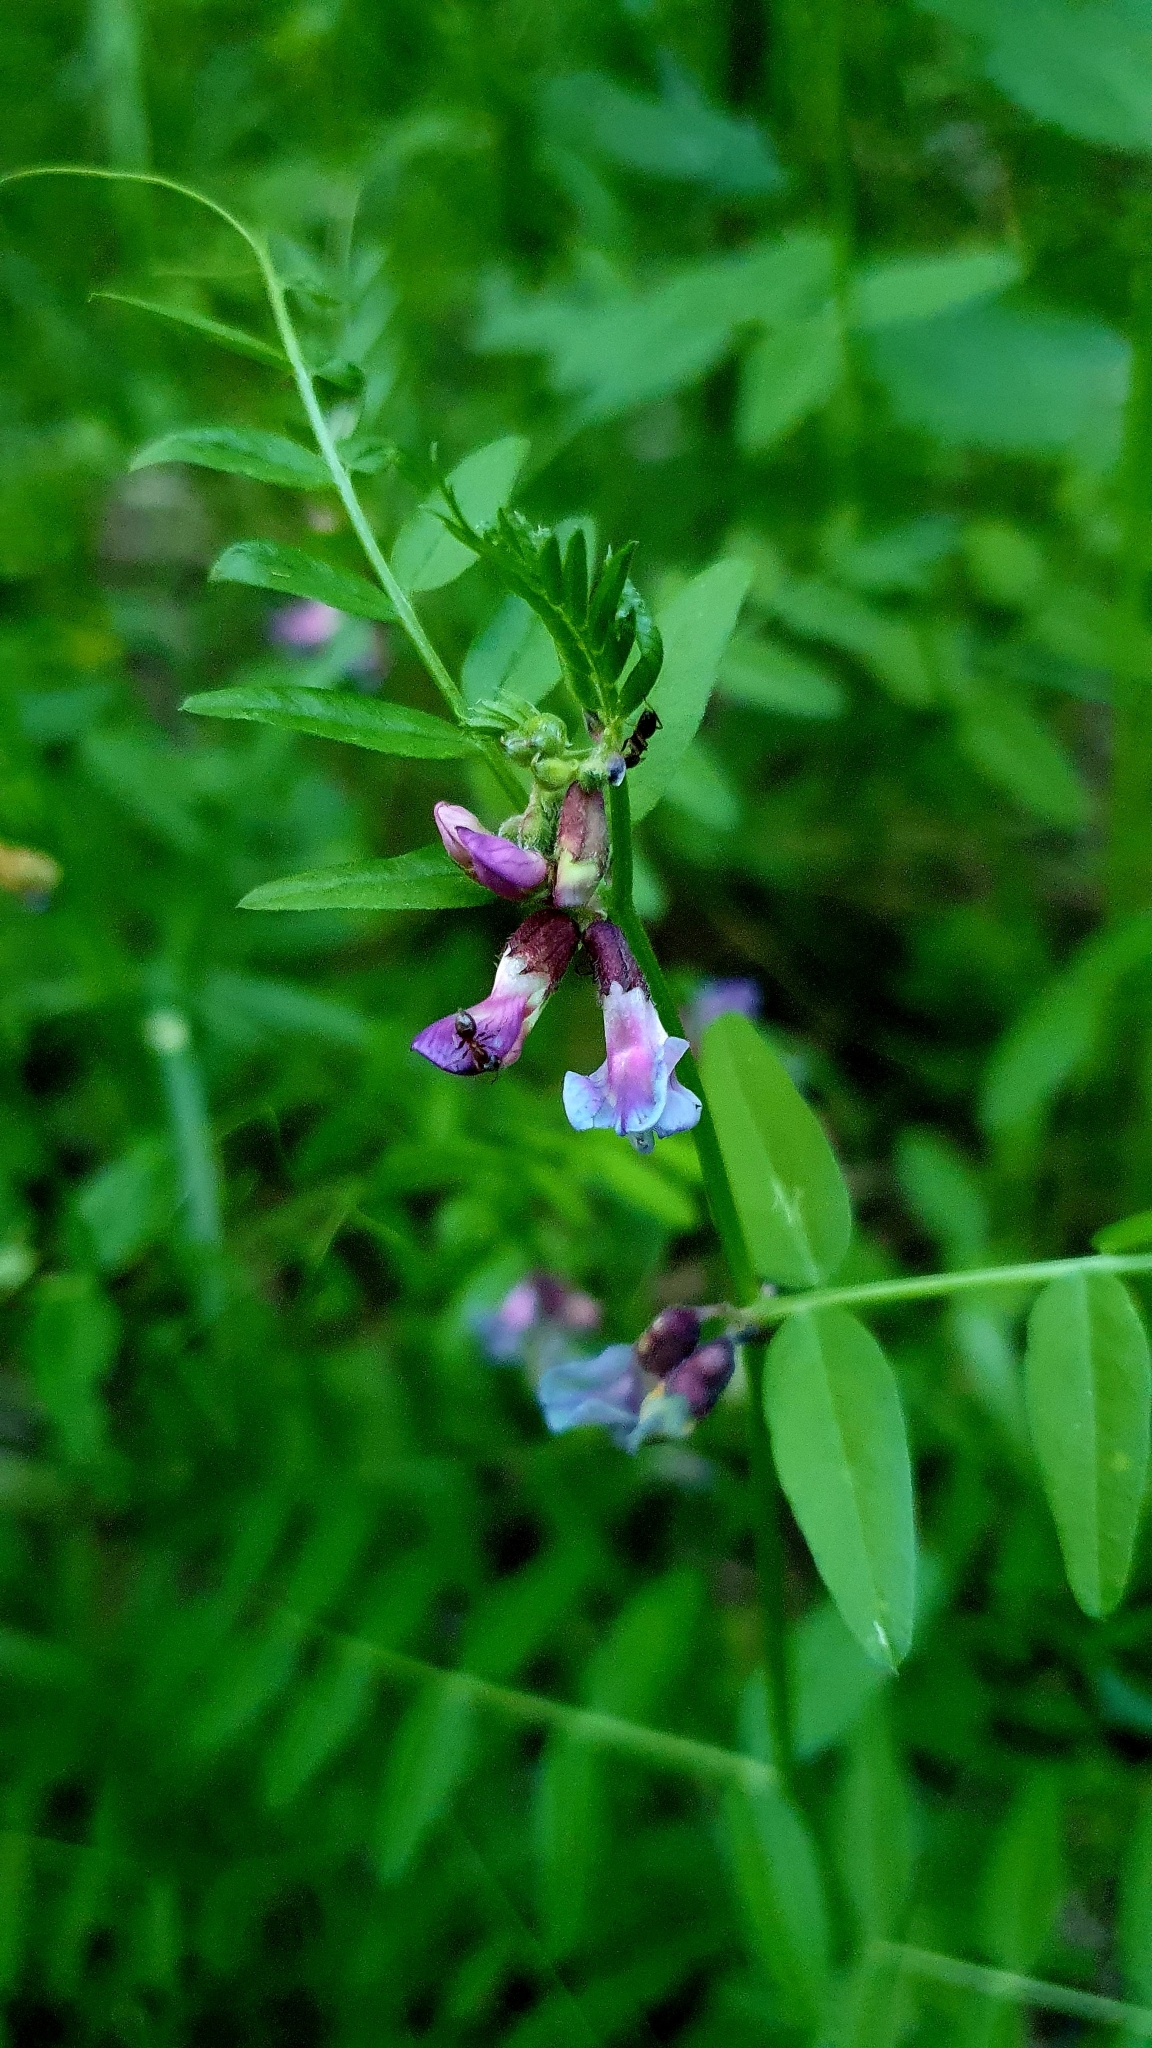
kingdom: Plantae
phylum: Tracheophyta
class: Magnoliopsida
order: Fabales
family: Fabaceae
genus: Vicia
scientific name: Vicia sepium
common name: Bush vetch
